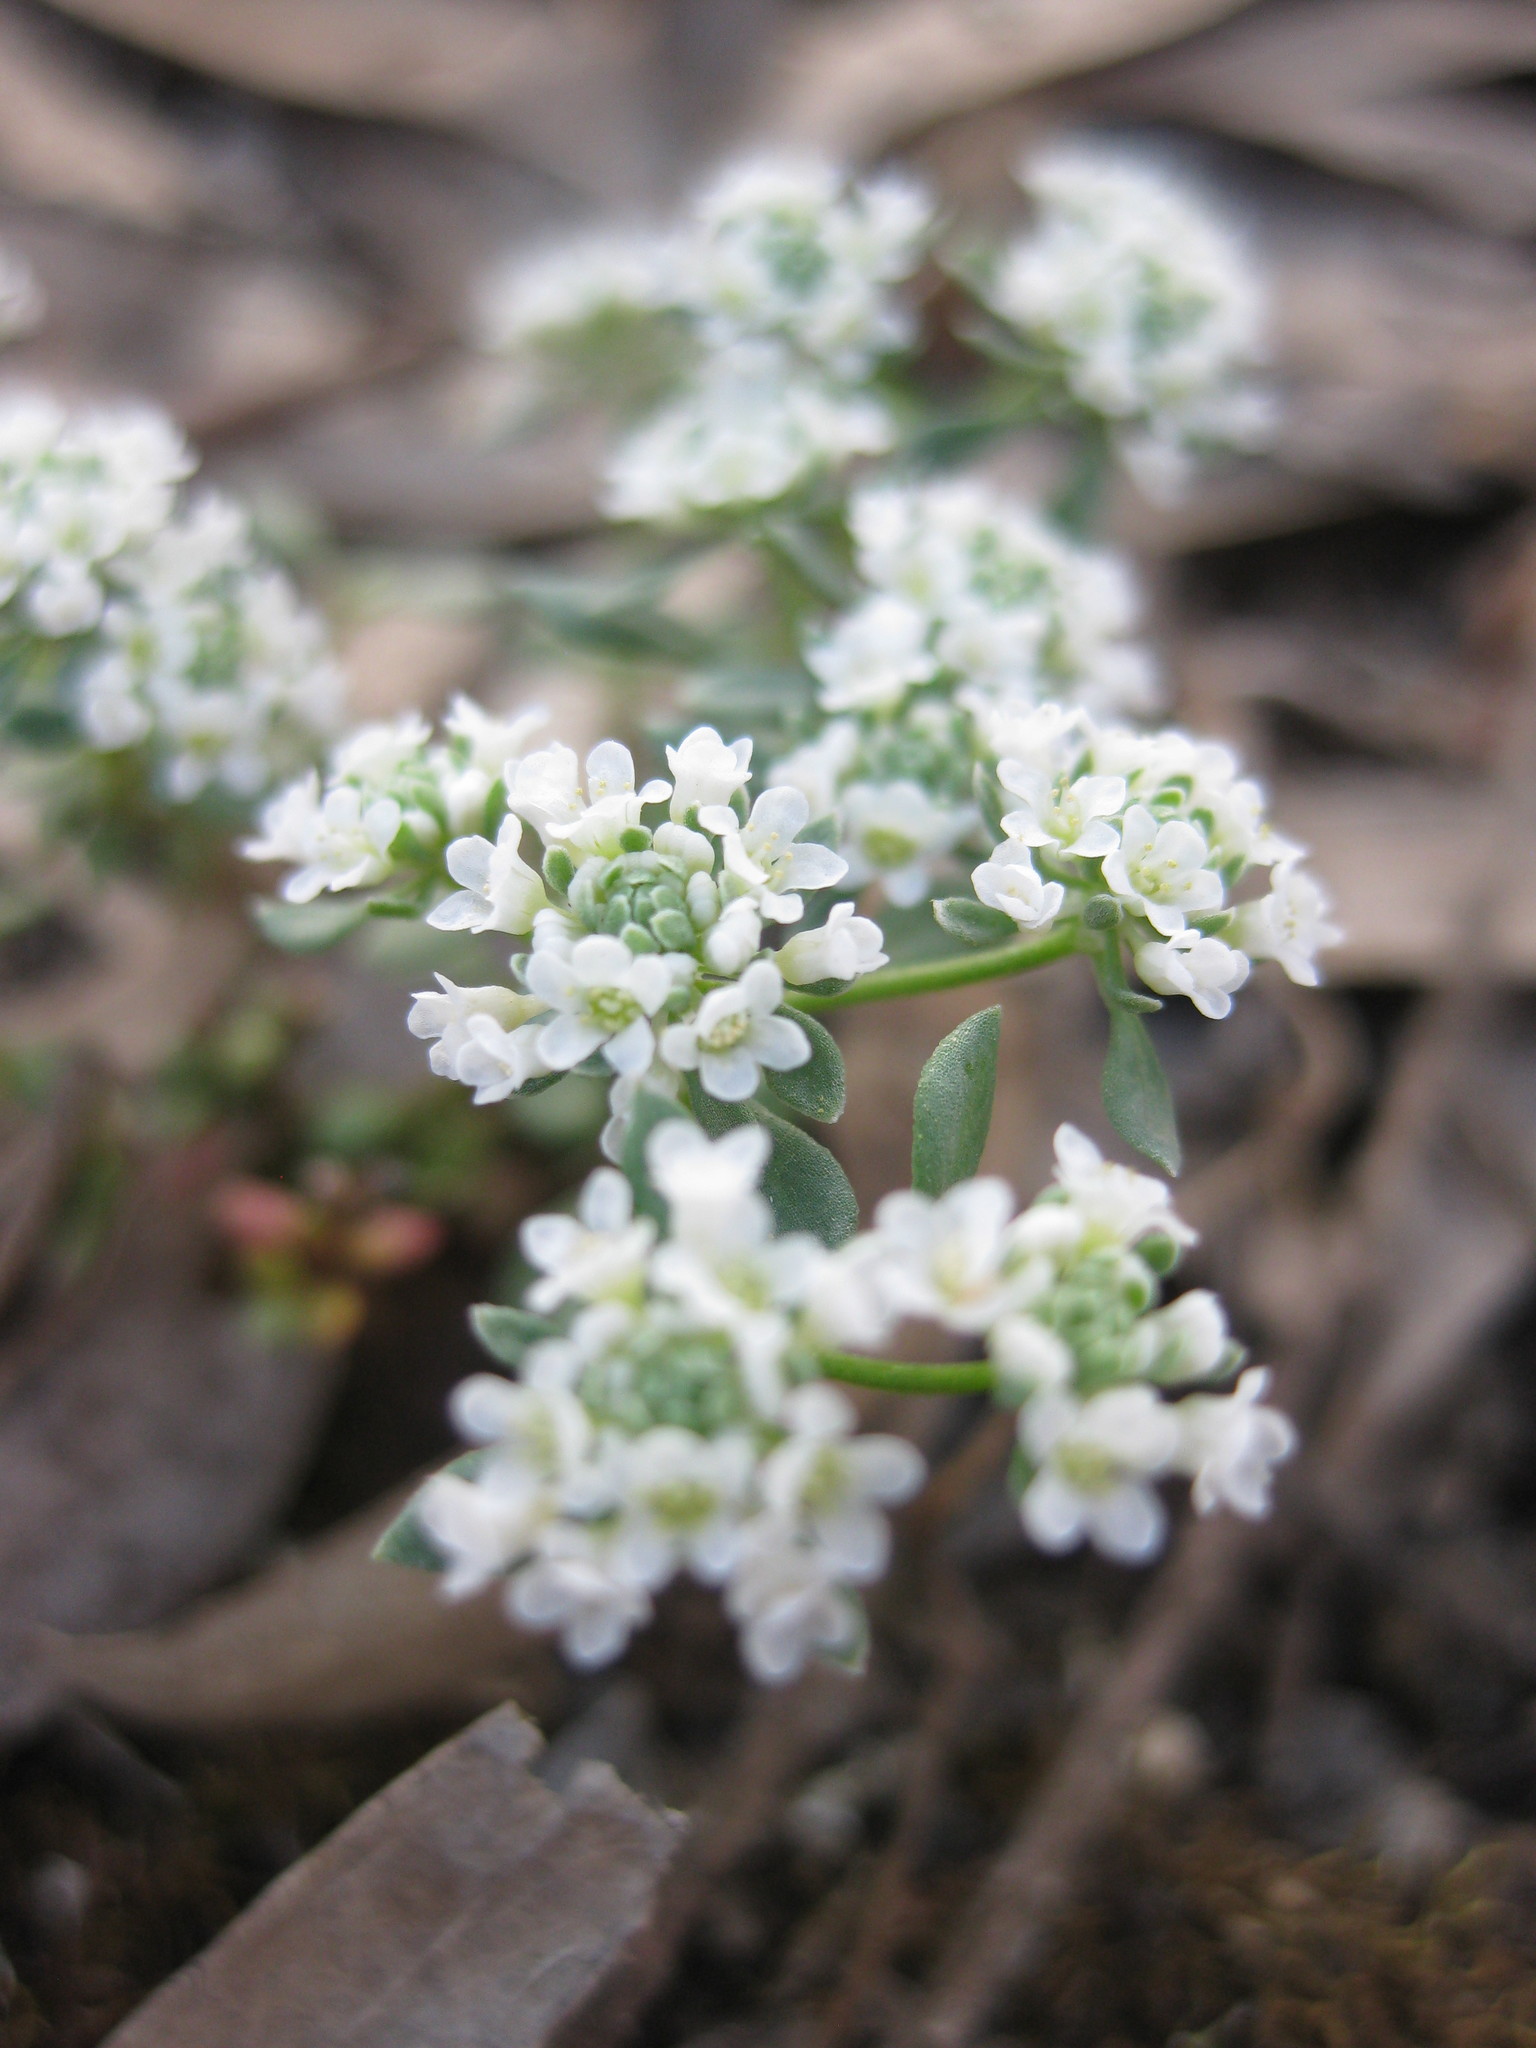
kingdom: Plantae
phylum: Tracheophyta
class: Magnoliopsida
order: Malpighiales
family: Phyllanthaceae
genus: Poranthera
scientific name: Poranthera microphylla
